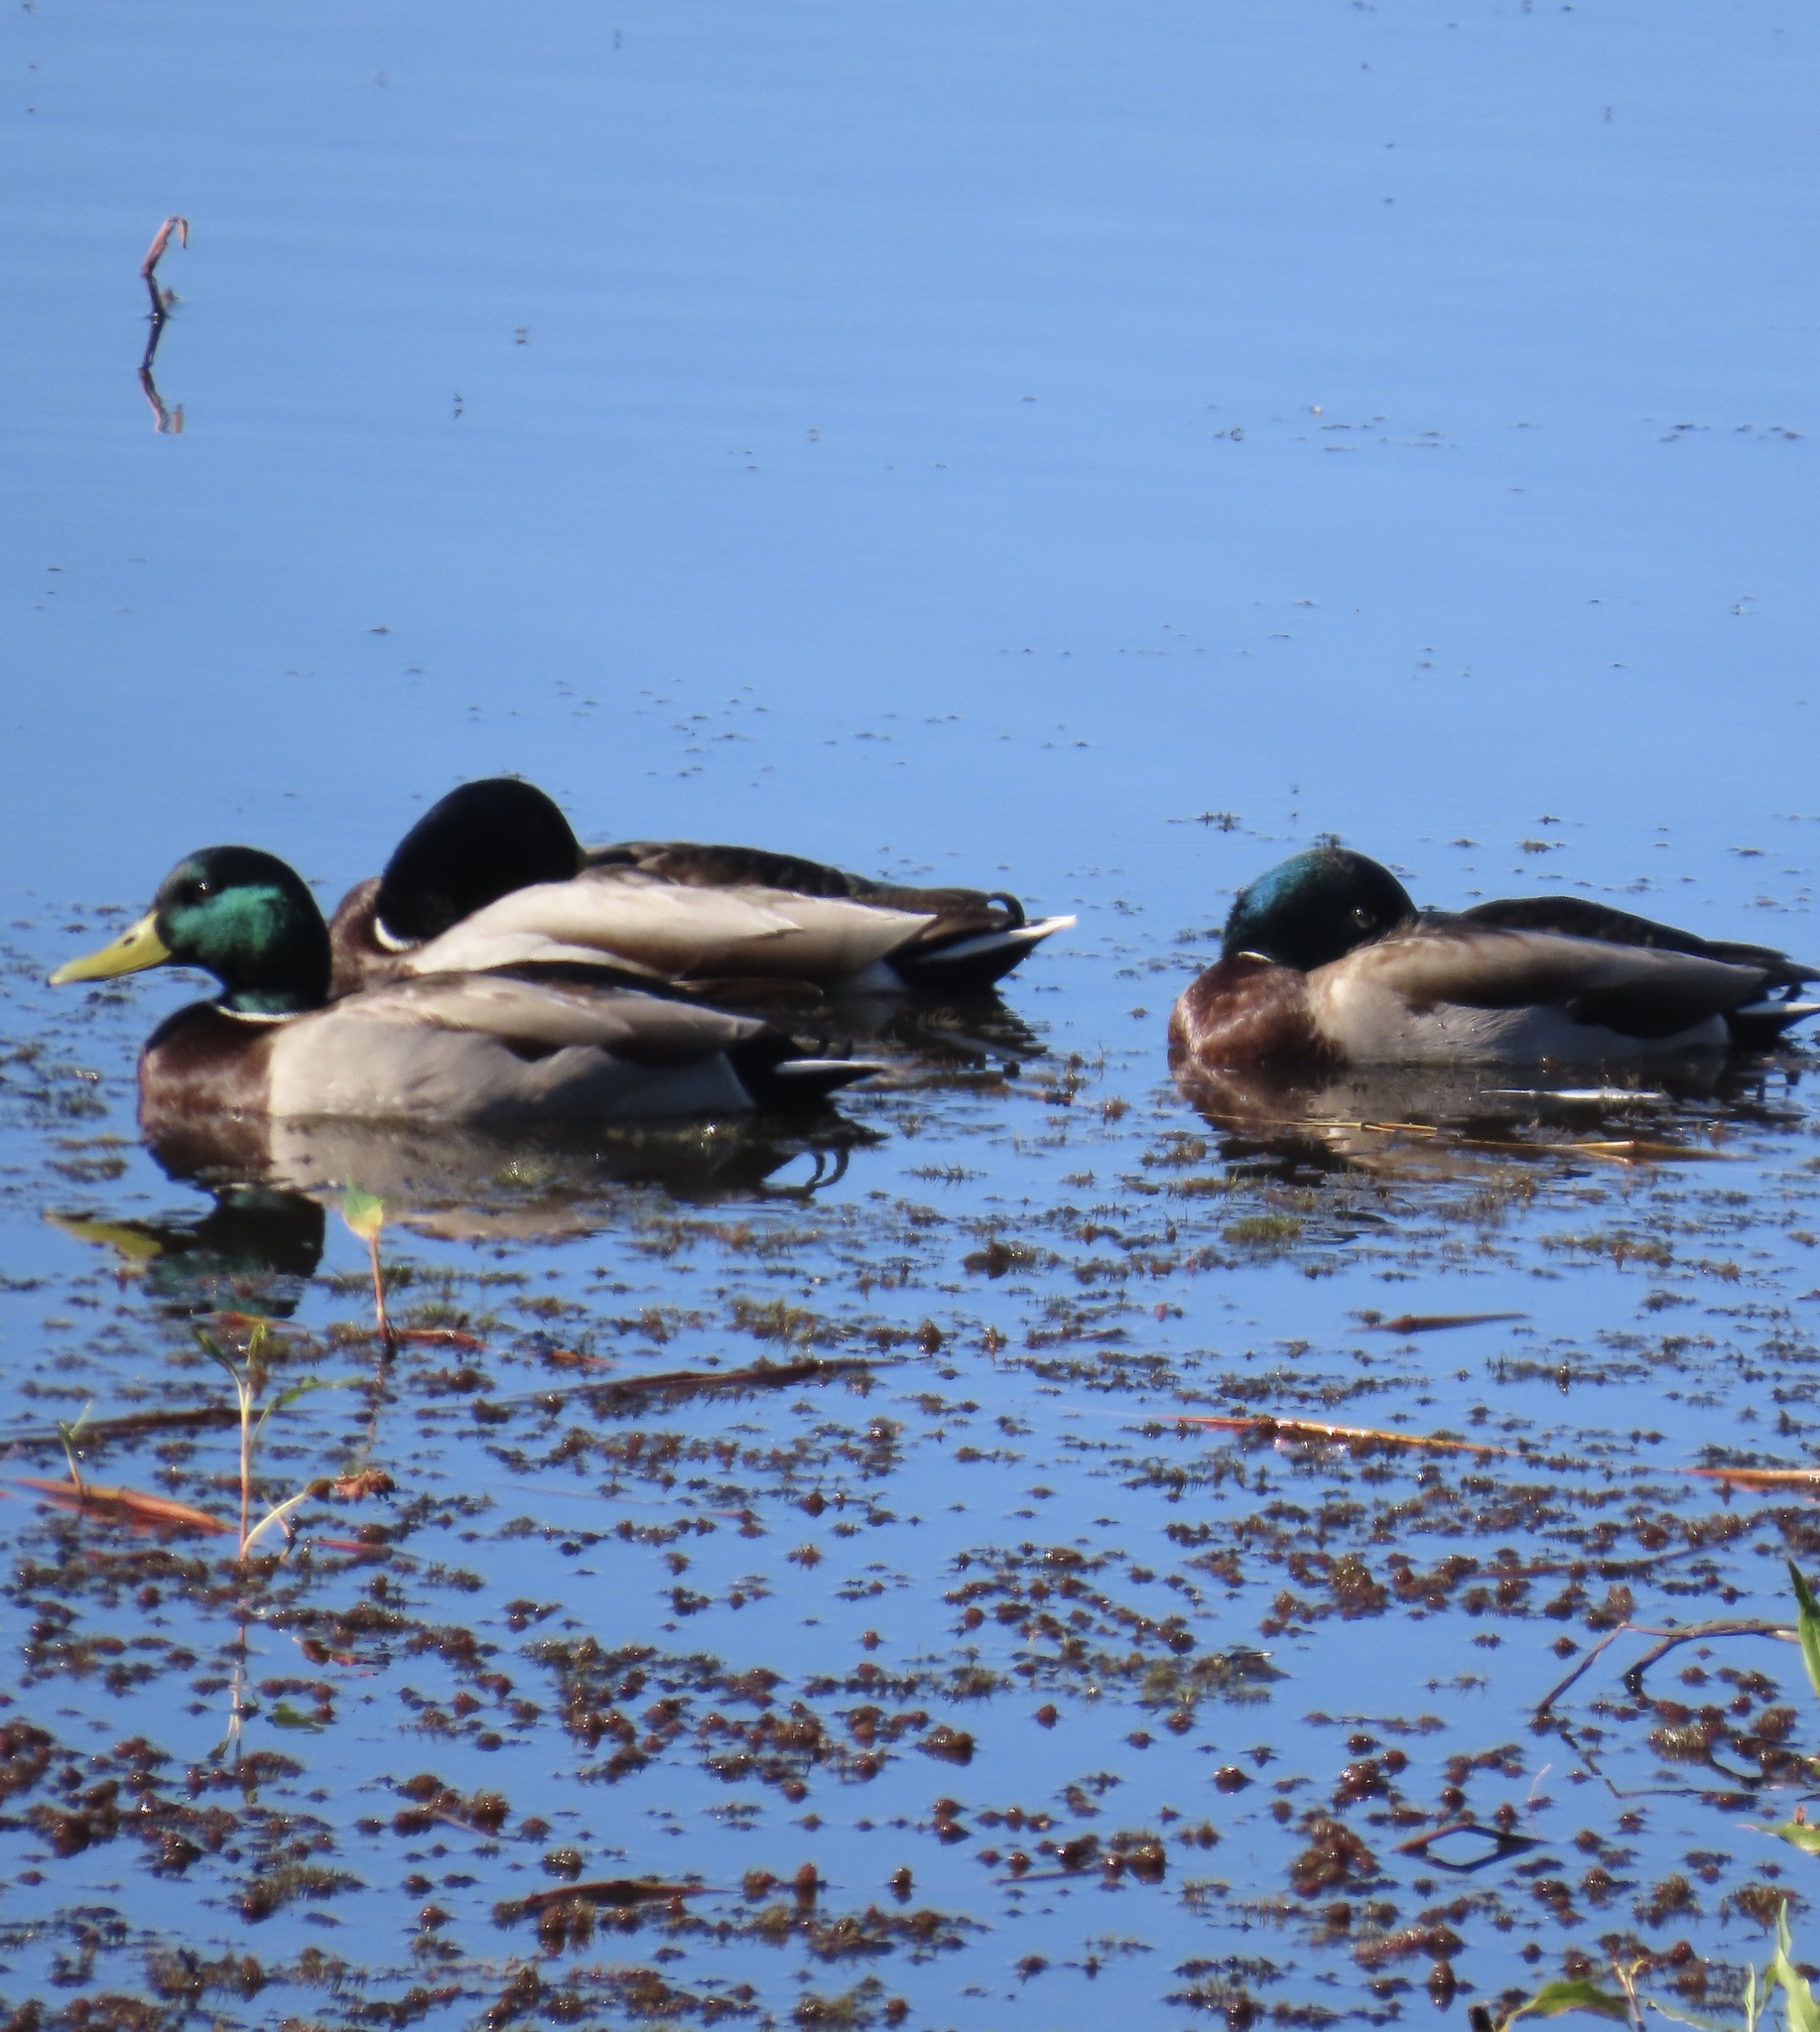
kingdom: Animalia
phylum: Chordata
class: Aves
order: Anseriformes
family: Anatidae
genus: Anas
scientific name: Anas platyrhynchos
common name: Mallard
